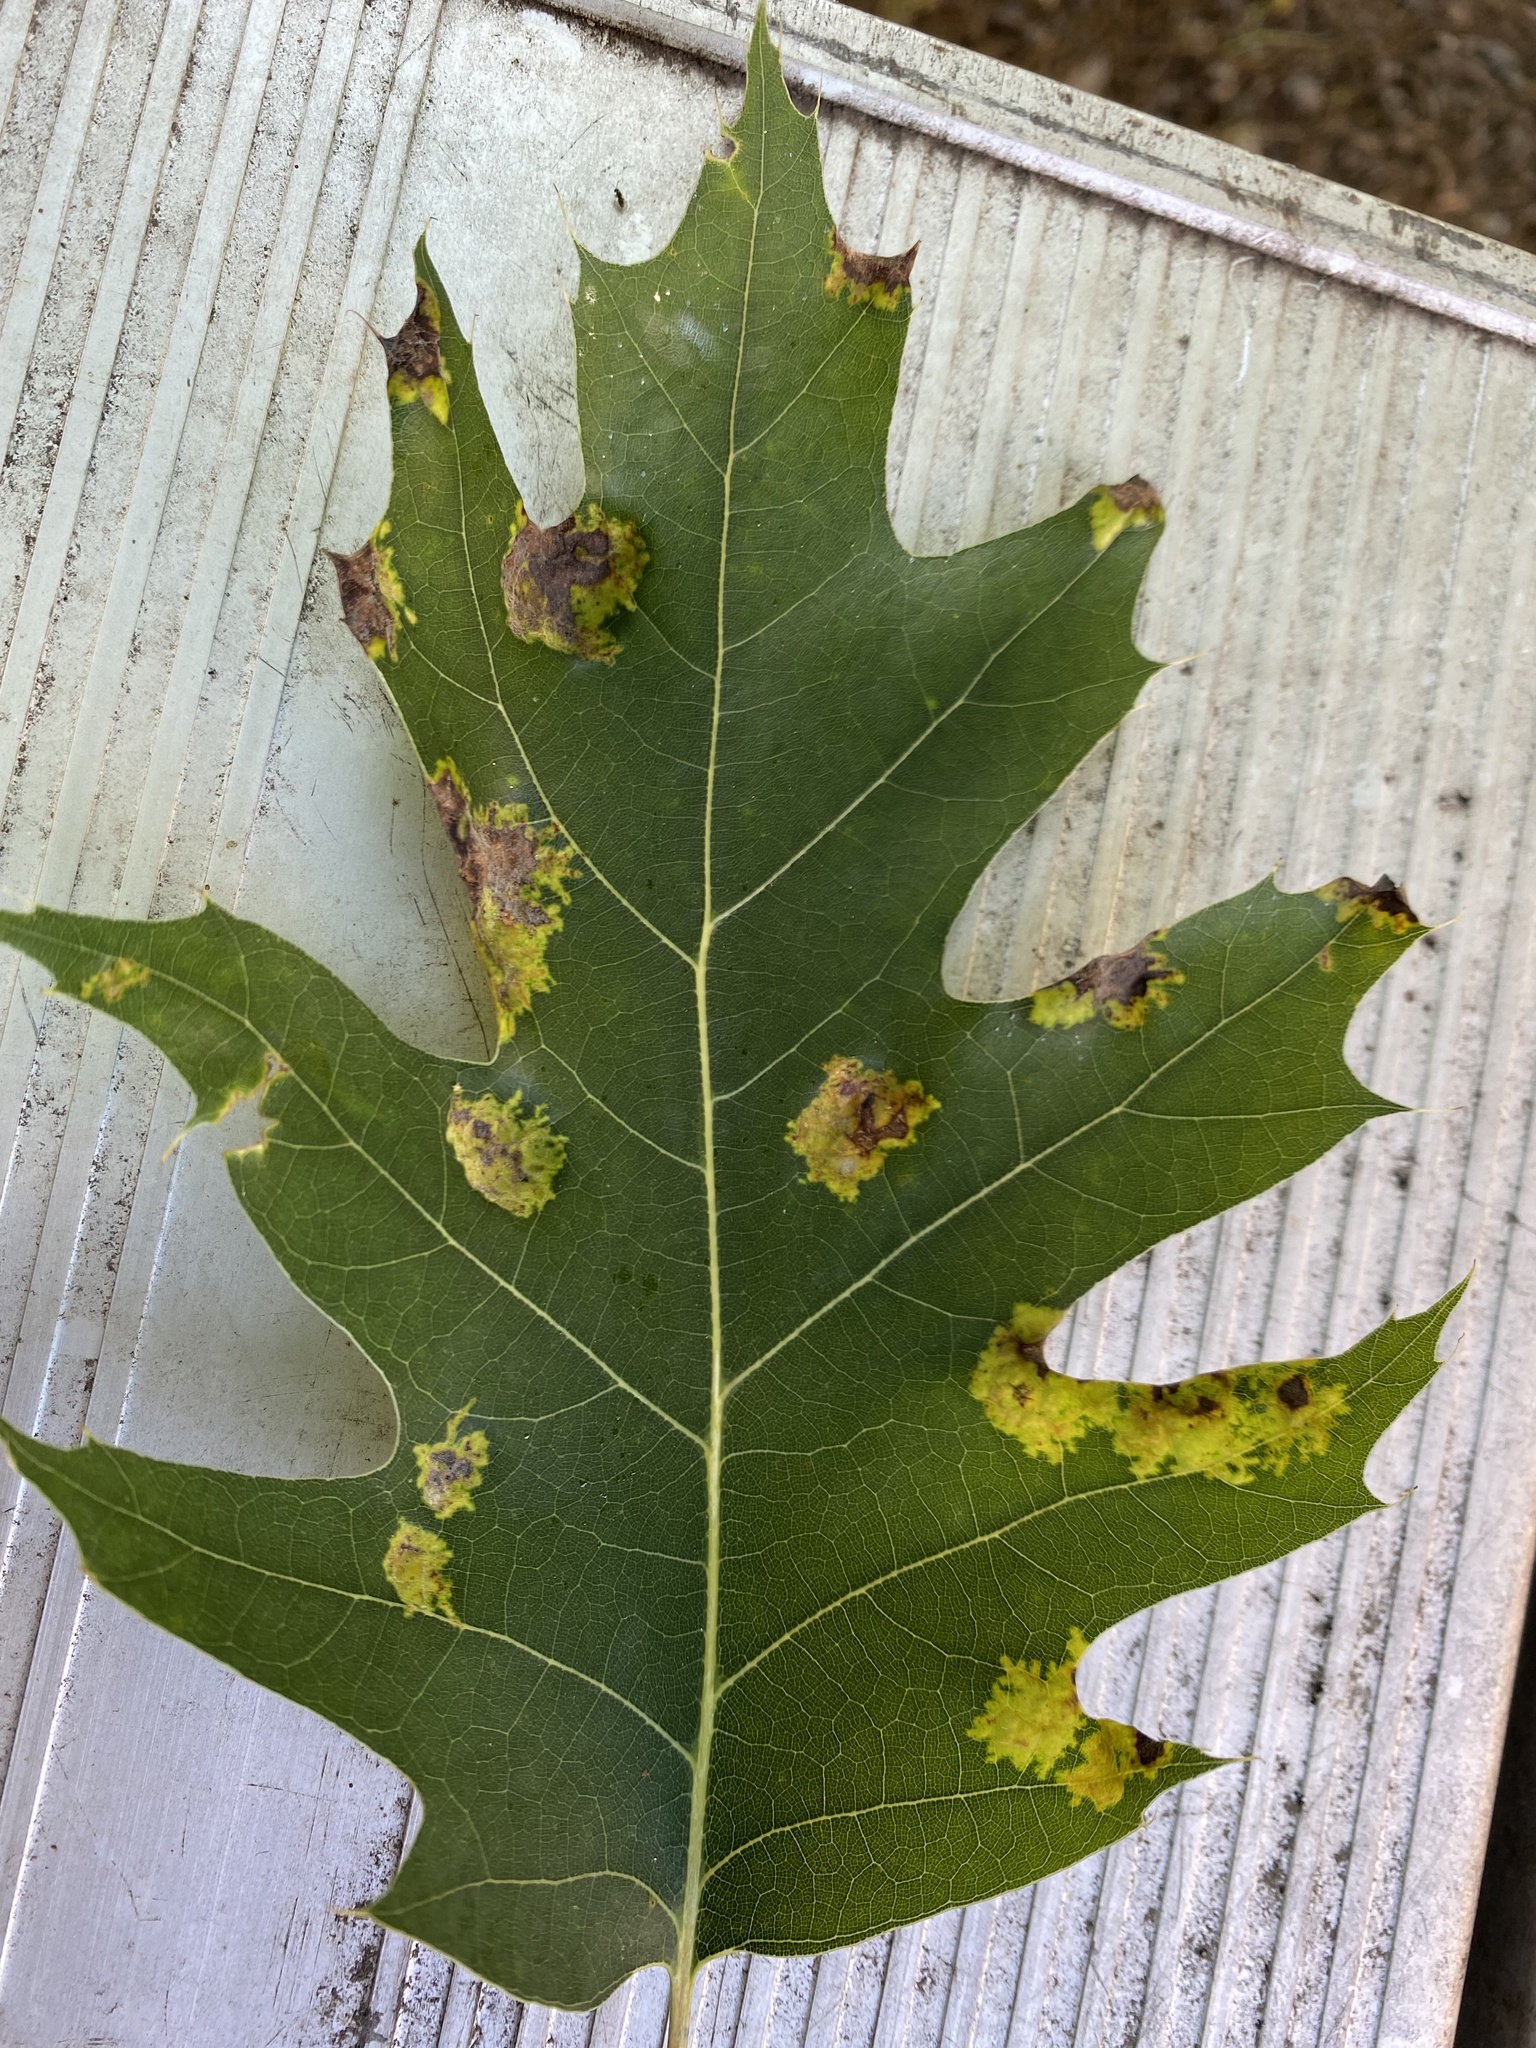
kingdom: Fungi
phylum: Ascomycota
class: Taphrinomycetes
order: Taphrinales
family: Taphrinaceae
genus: Taphrina
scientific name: Taphrina caerulescens
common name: Oak leaf blister
